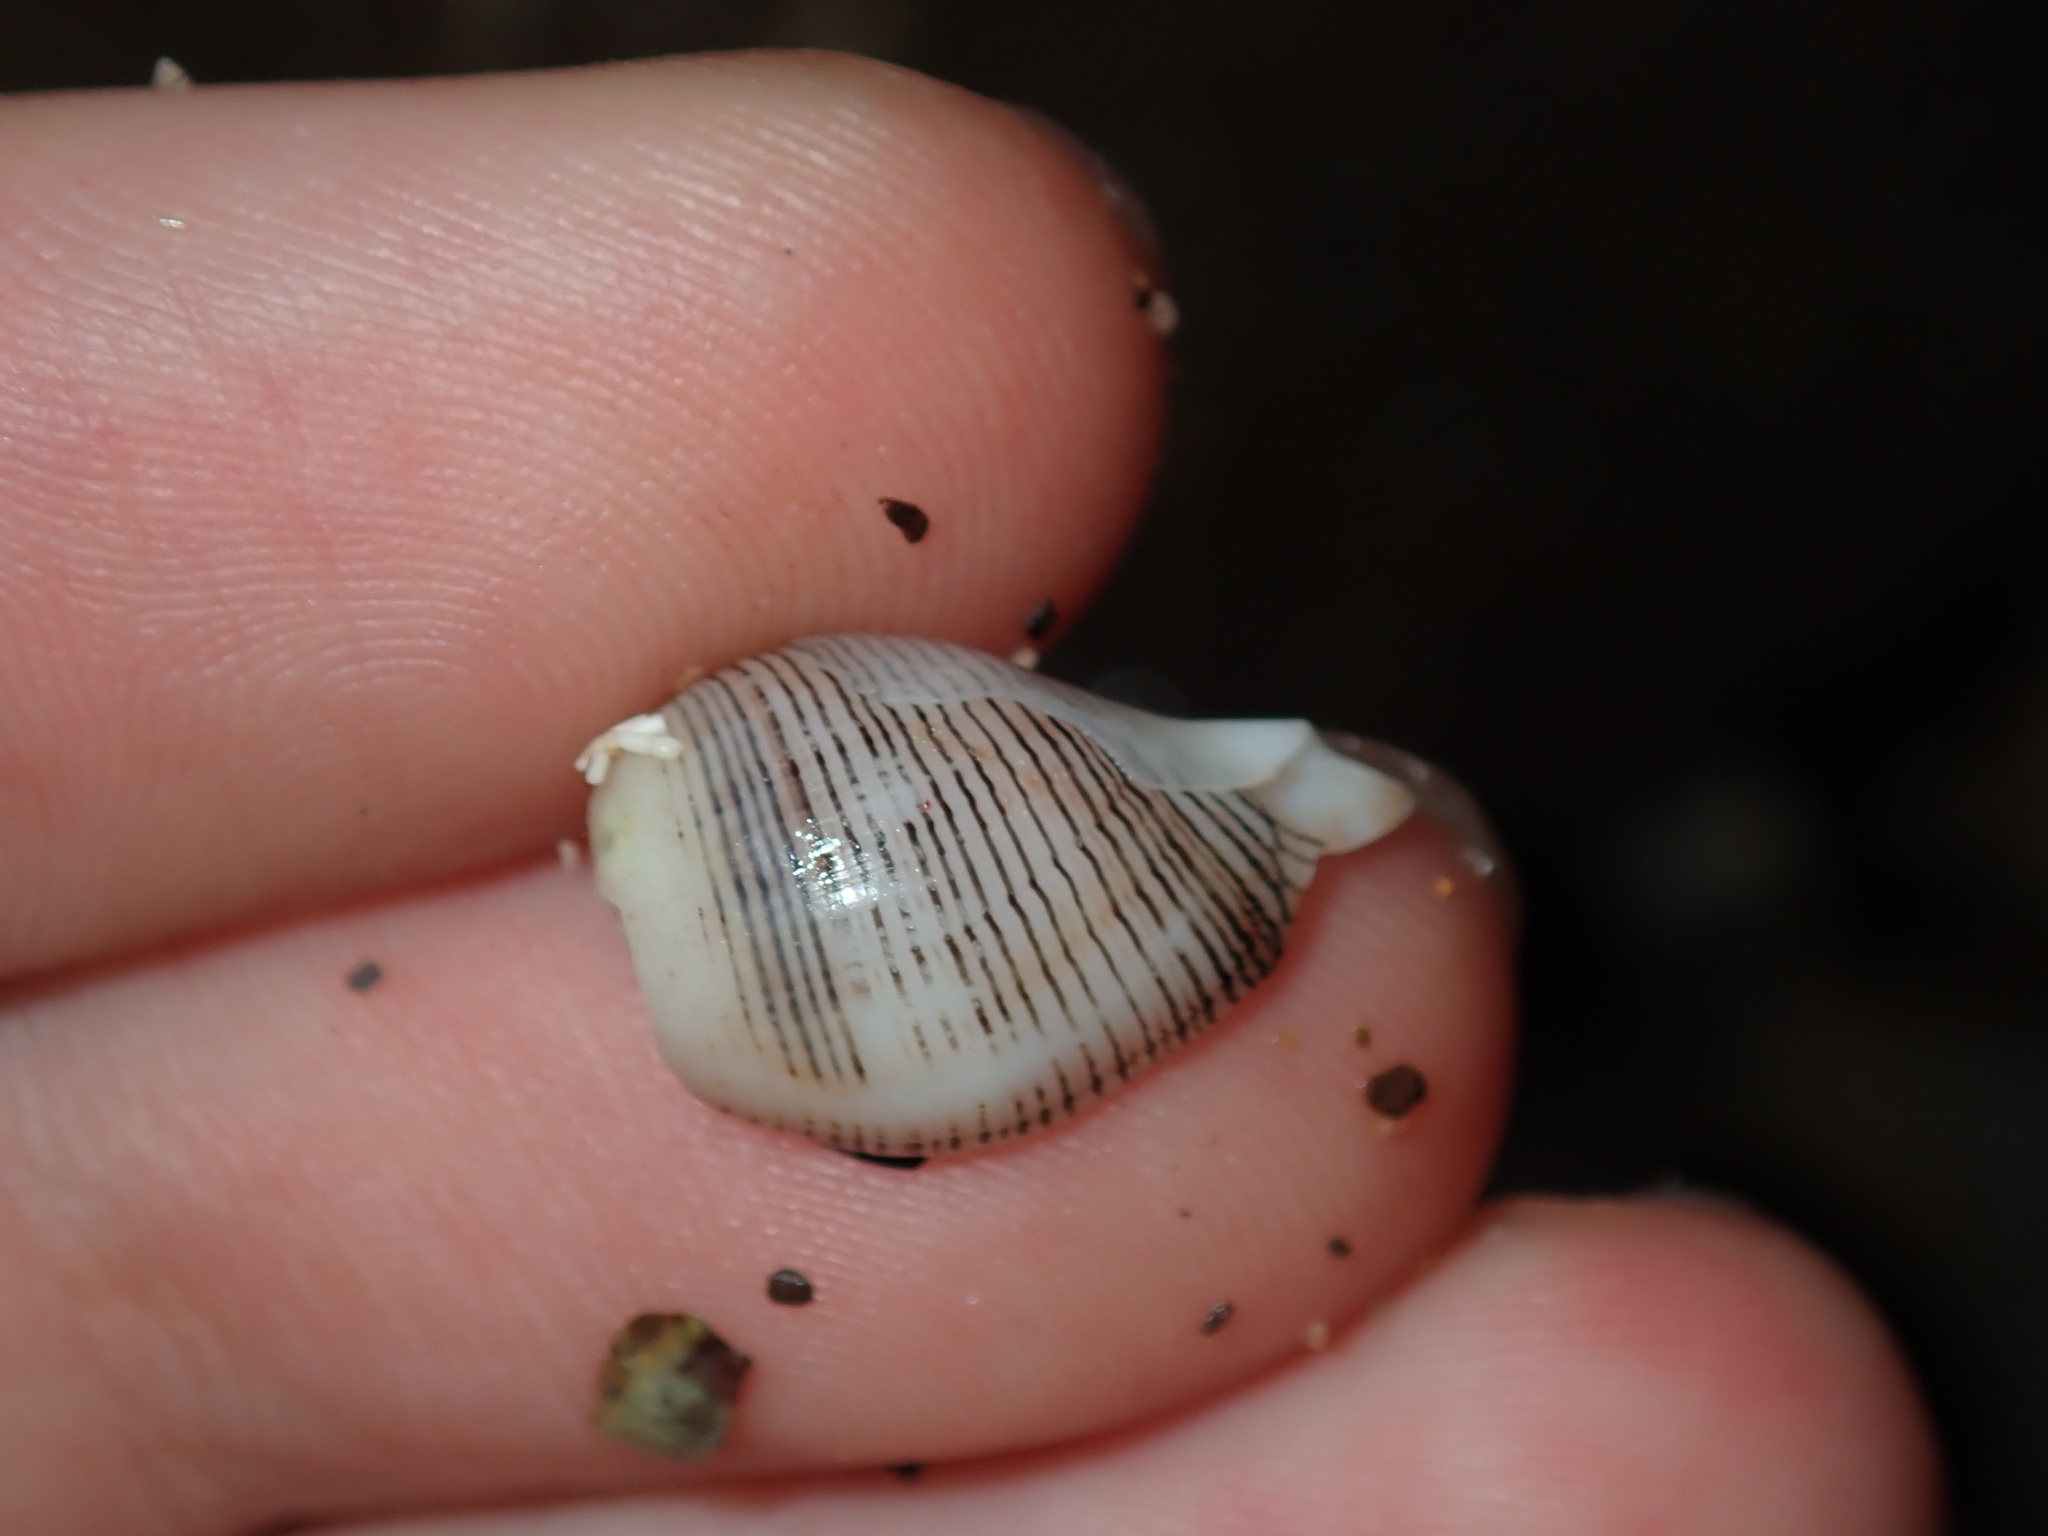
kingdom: Animalia
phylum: Mollusca
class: Gastropoda
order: Cephalaspidea
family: Aplustridae
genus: Hydatina
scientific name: Hydatina physis
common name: Brown-line paperbubble
